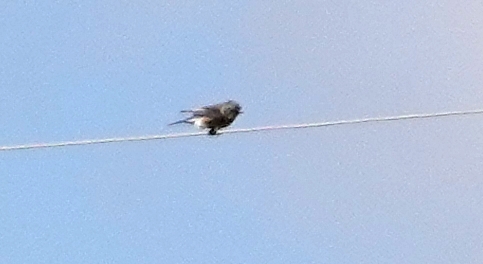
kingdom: Animalia
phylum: Chordata
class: Aves
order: Passeriformes
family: Turdidae
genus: Sialia
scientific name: Sialia currucoides
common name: Mountain bluebird
